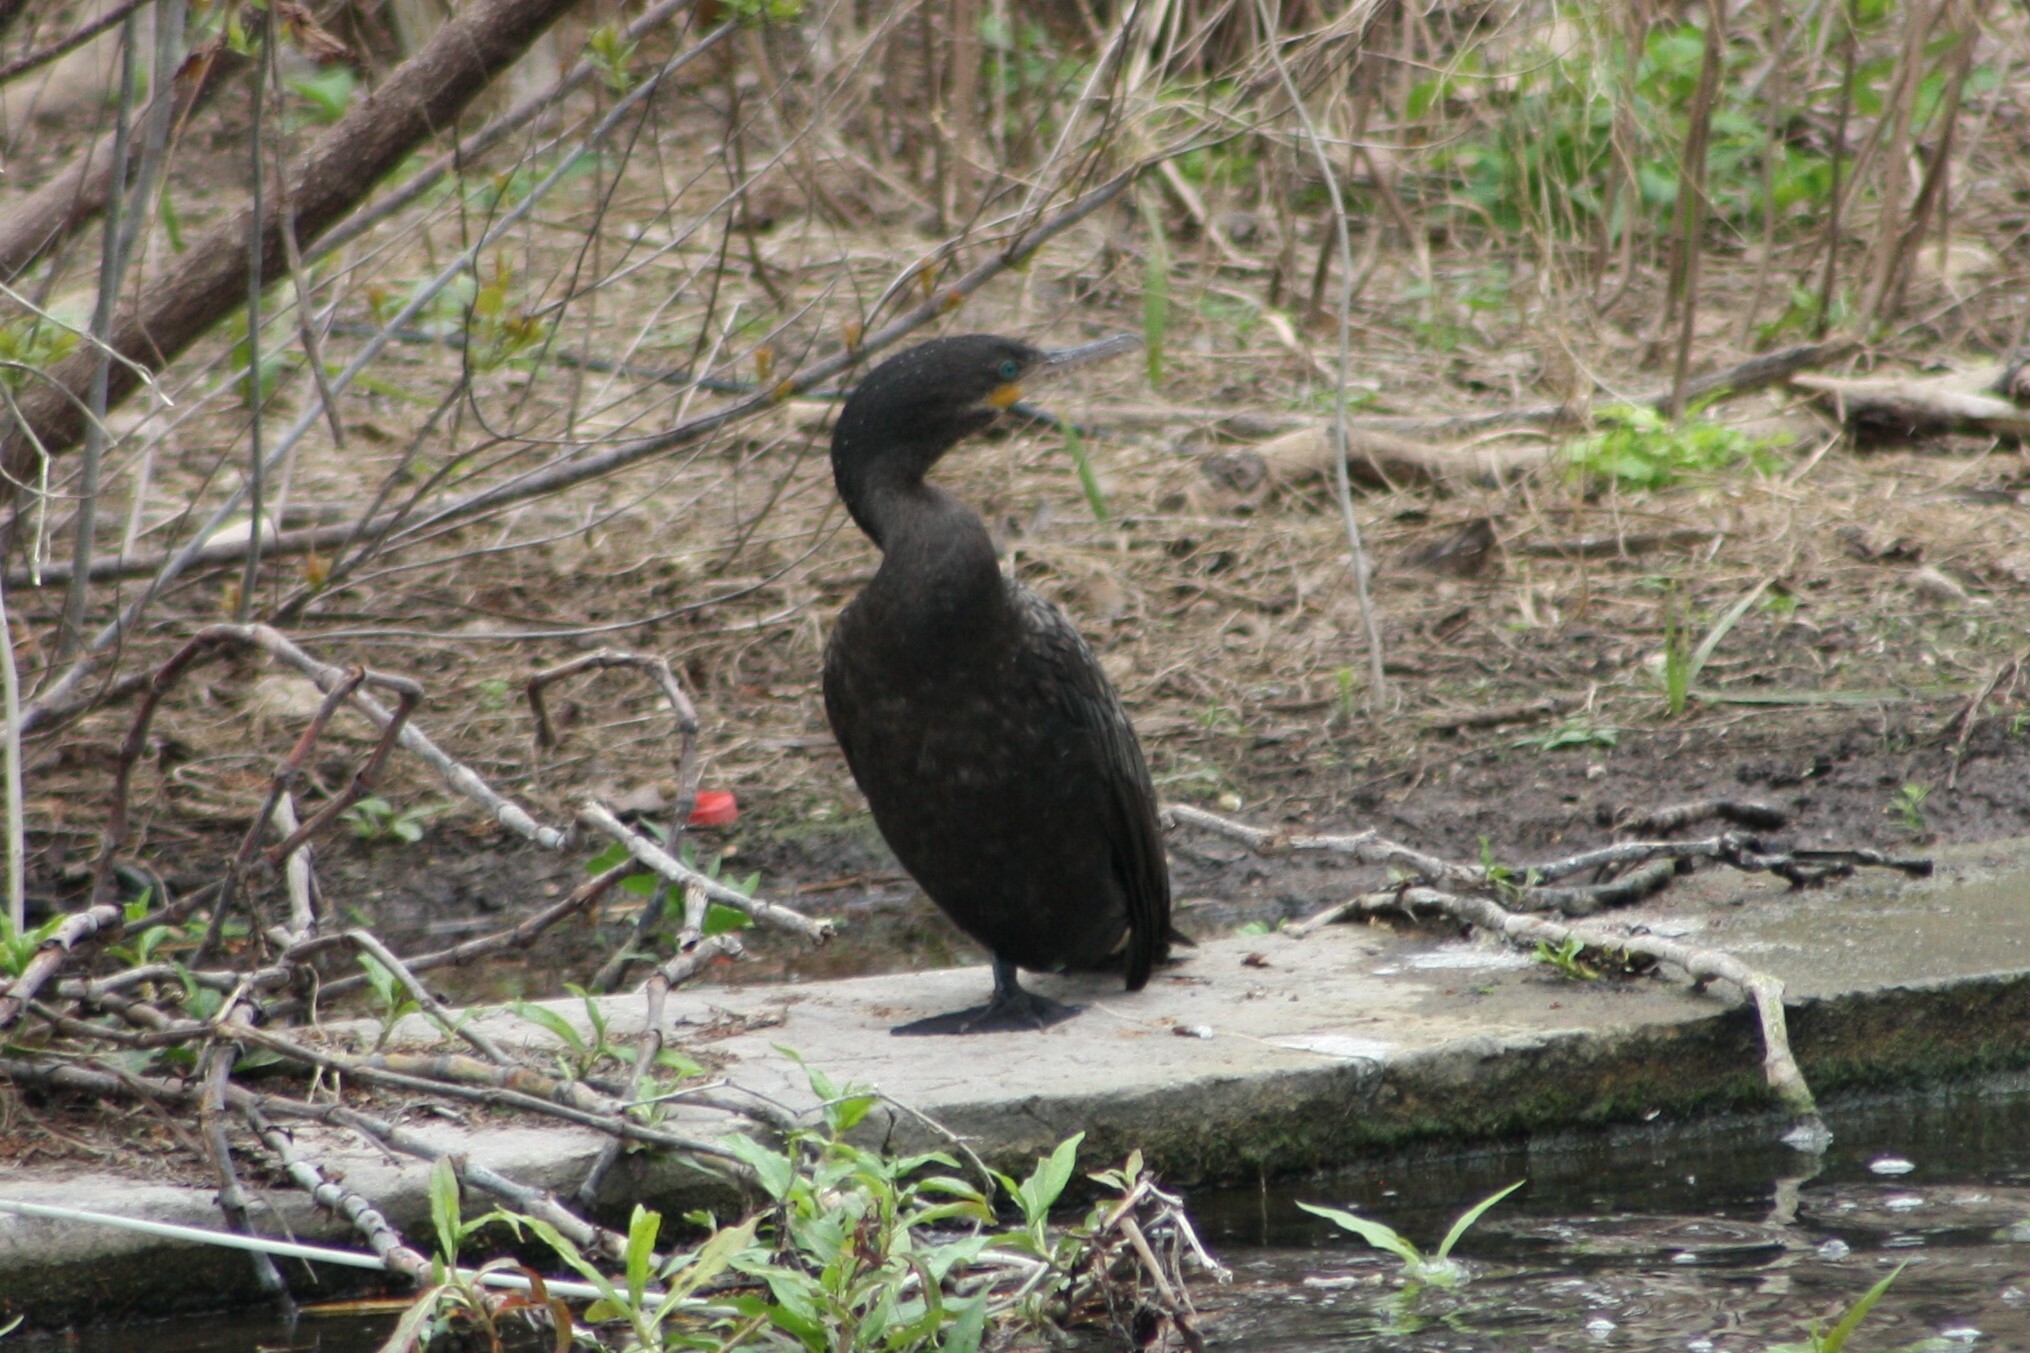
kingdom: Animalia
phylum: Chordata
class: Aves
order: Suliformes
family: Phalacrocoracidae
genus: Phalacrocorax
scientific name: Phalacrocorax brasilianus
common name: Neotropic cormorant
